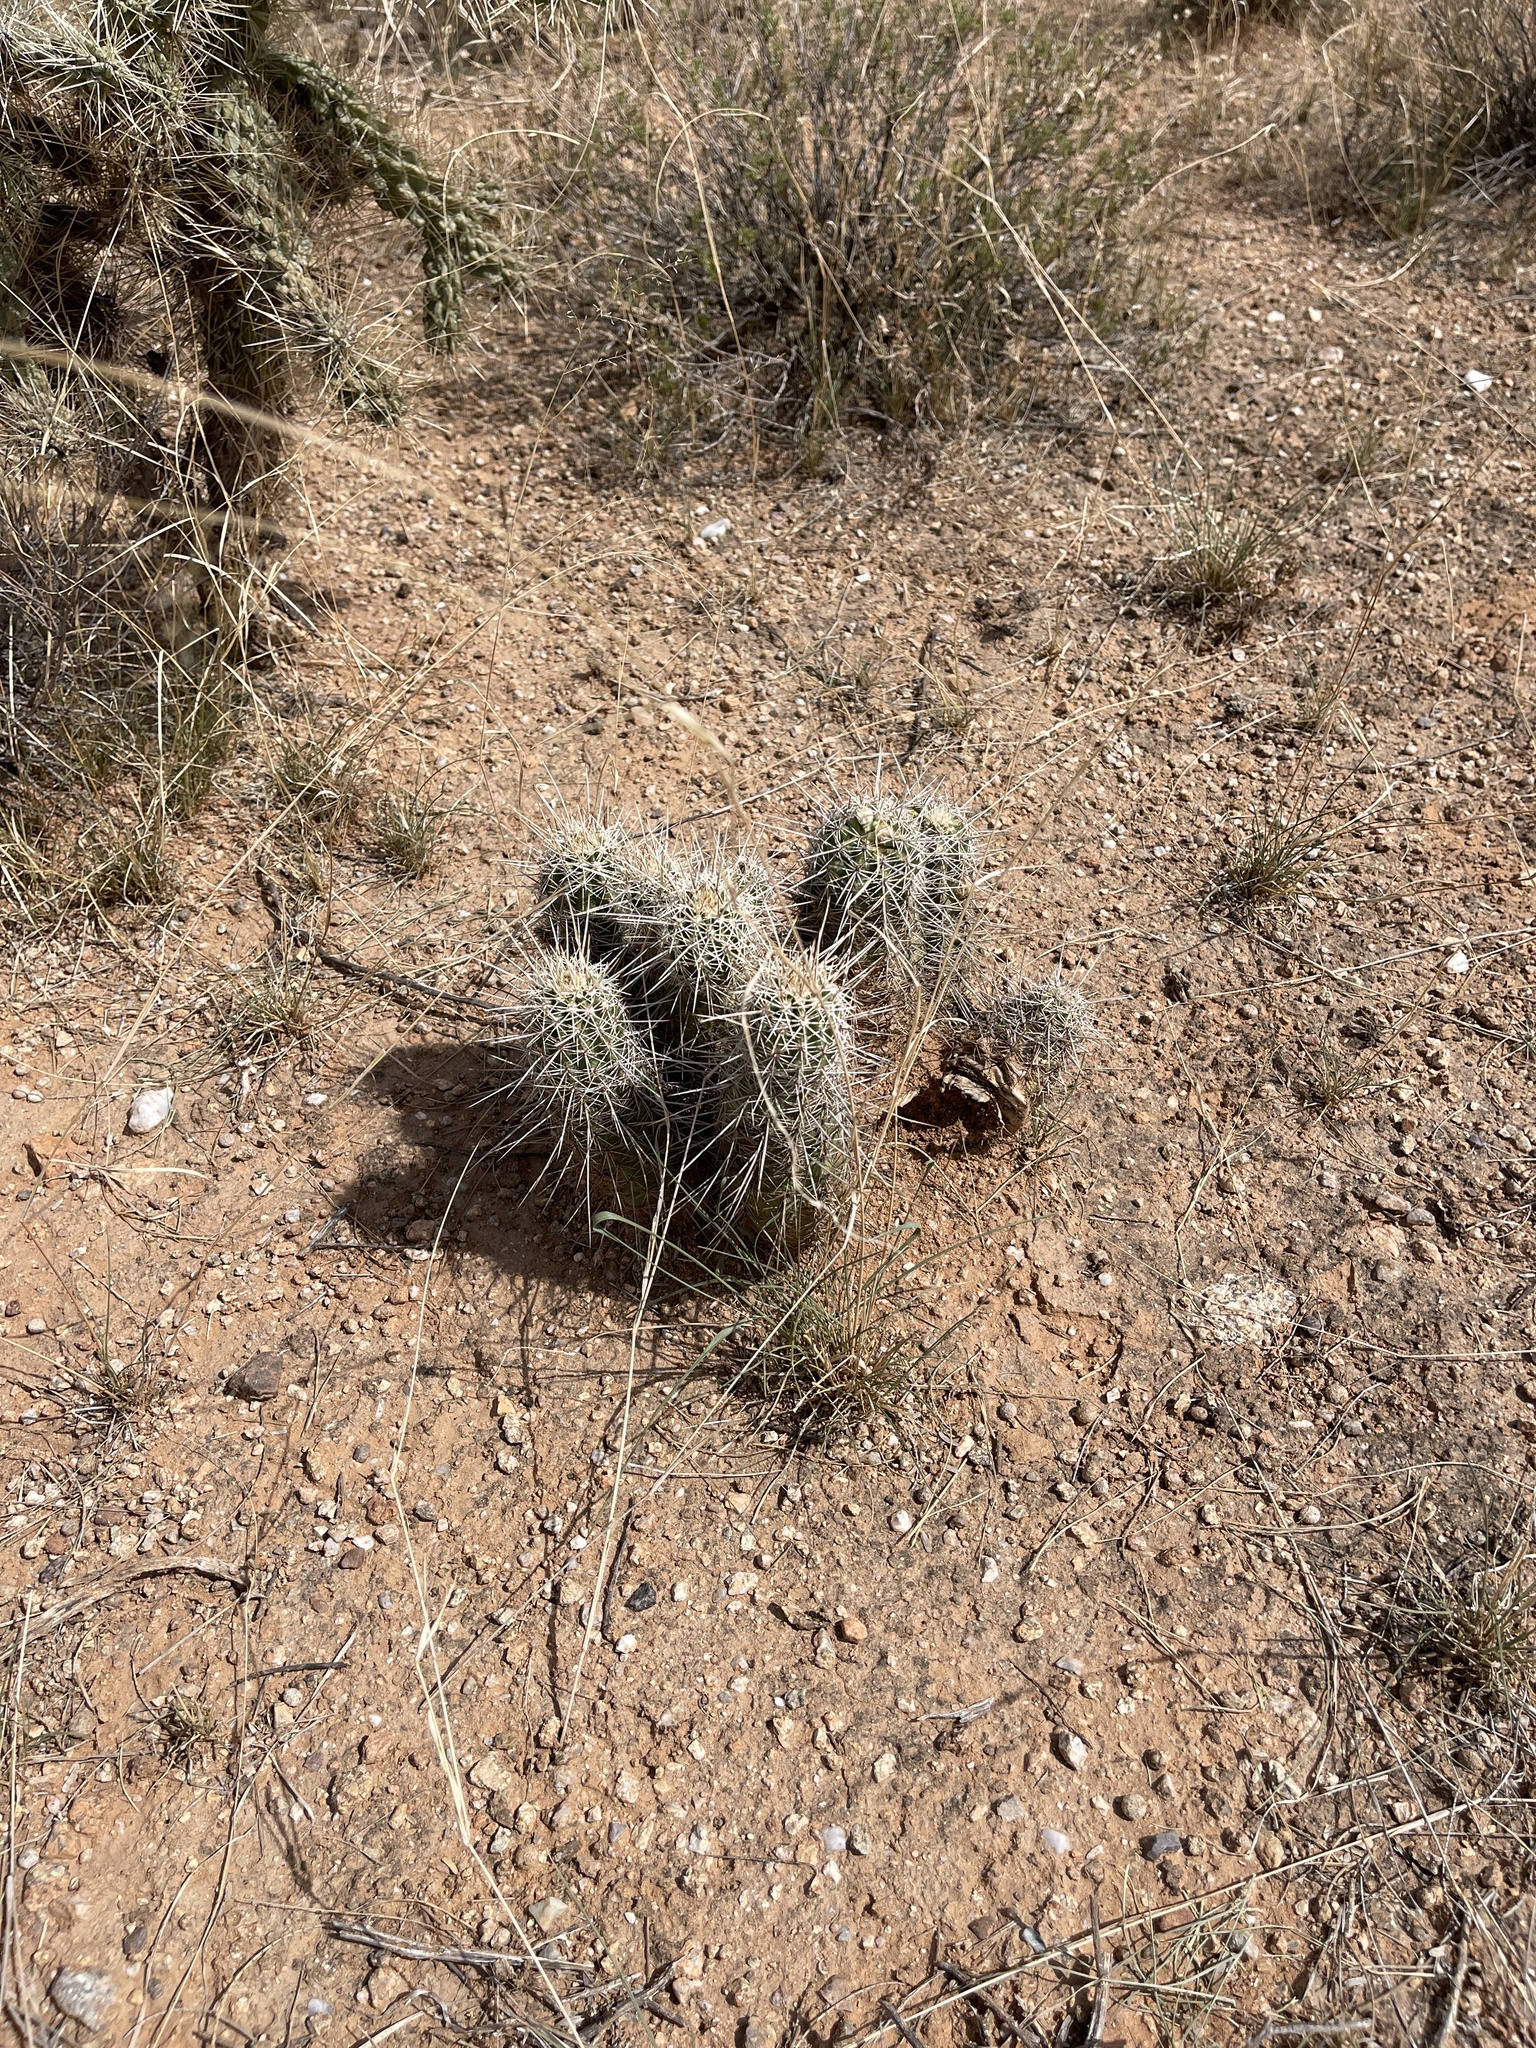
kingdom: Plantae
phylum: Tracheophyta
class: Magnoliopsida
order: Caryophyllales
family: Cactaceae
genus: Echinocereus
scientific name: Echinocereus fasciculatus
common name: Bundle hedgehog
